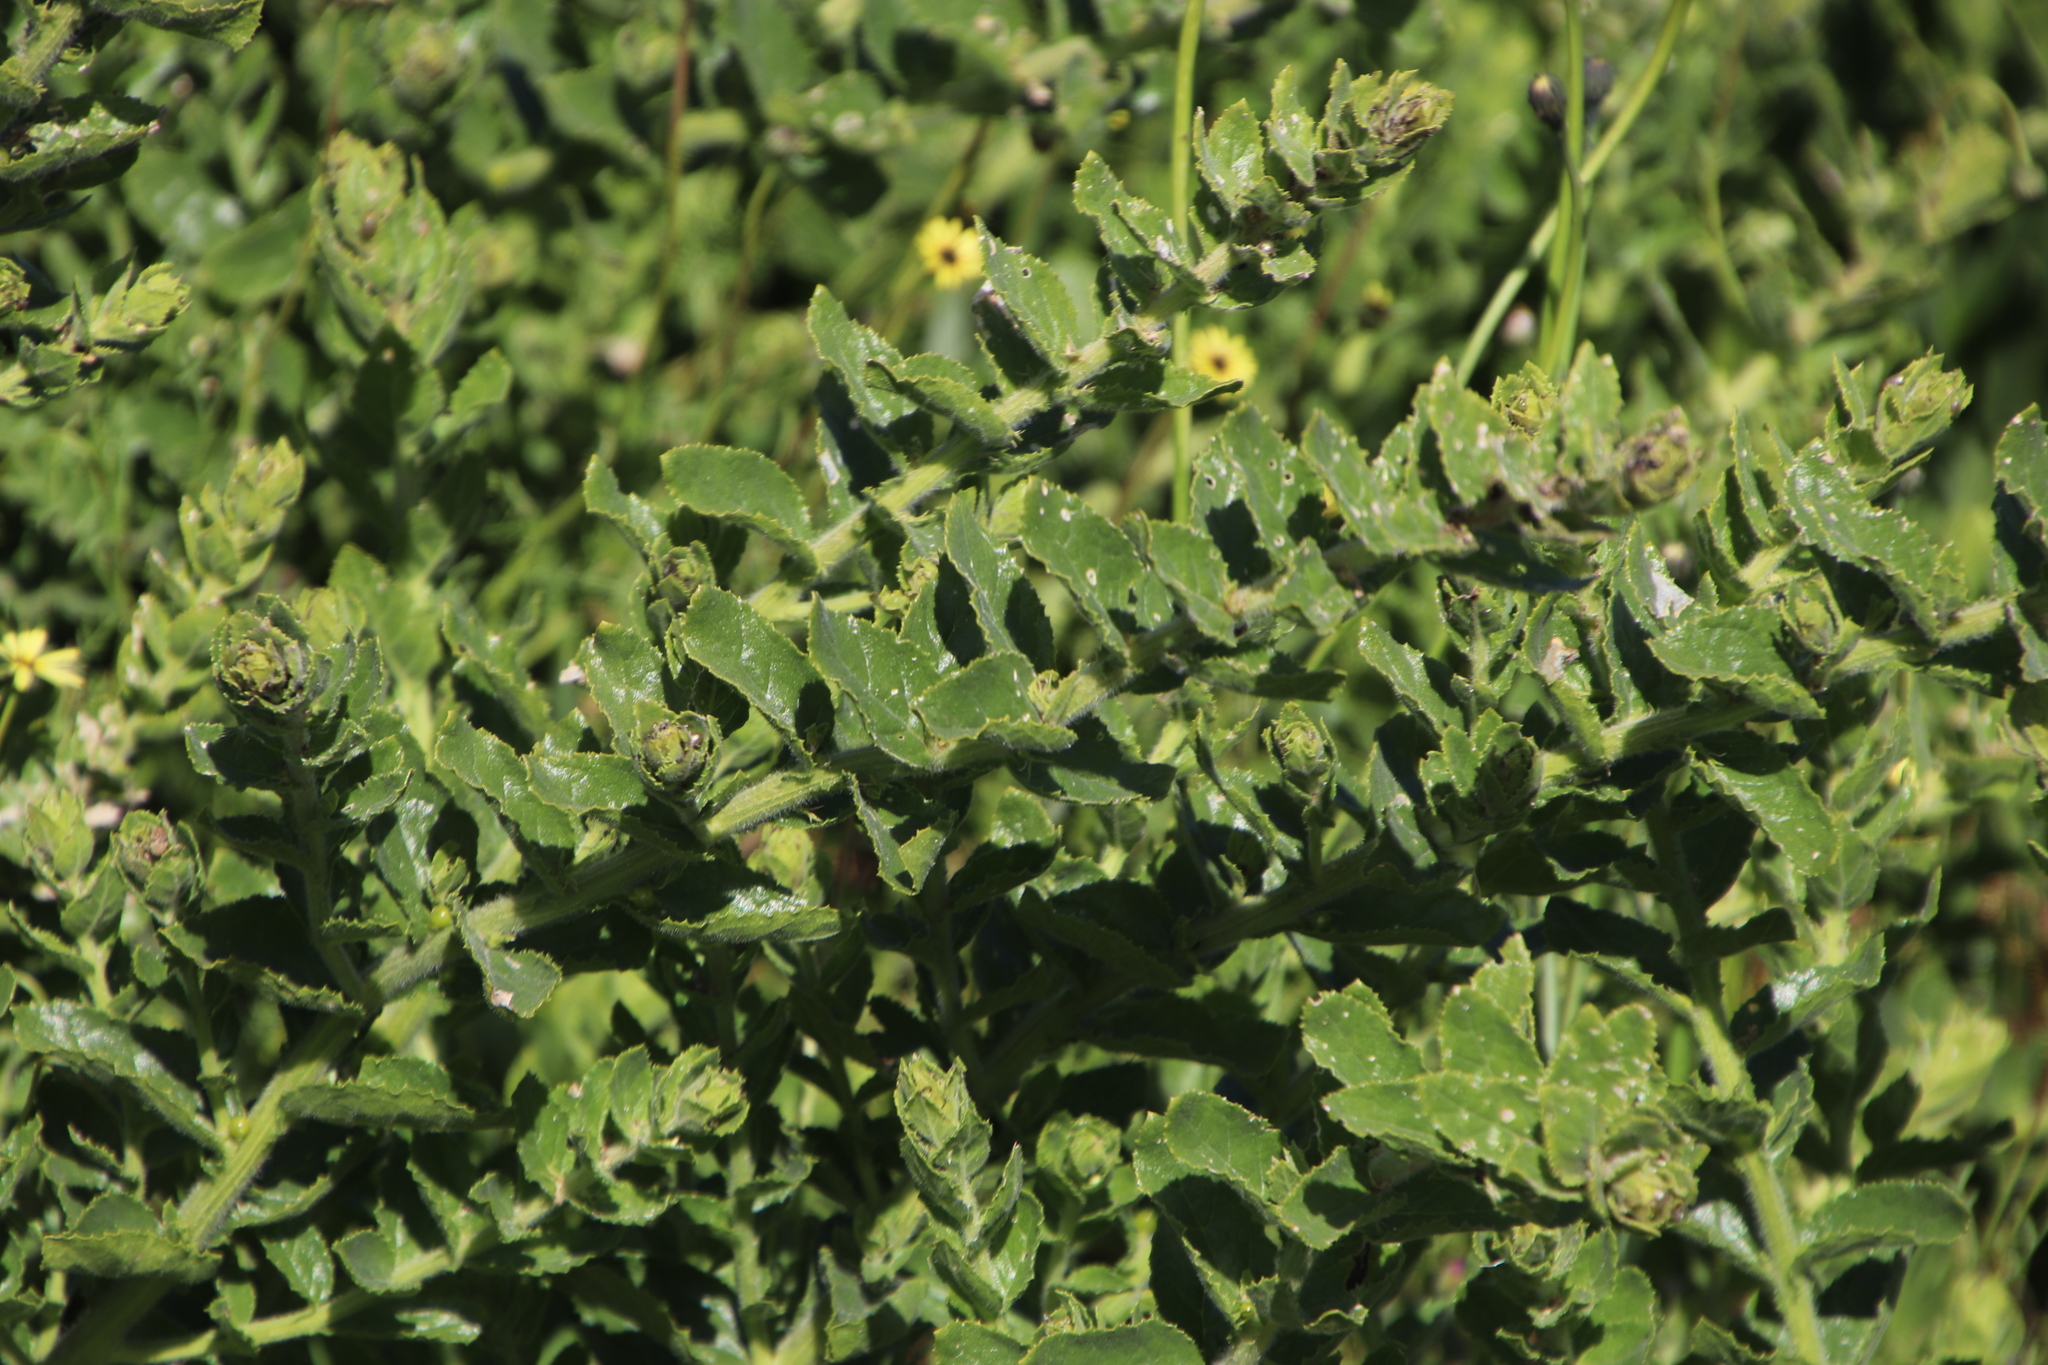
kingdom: Plantae
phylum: Tracheophyta
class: Magnoliopsida
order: Lamiales
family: Scrophulariaceae
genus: Oftia
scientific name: Oftia africana
